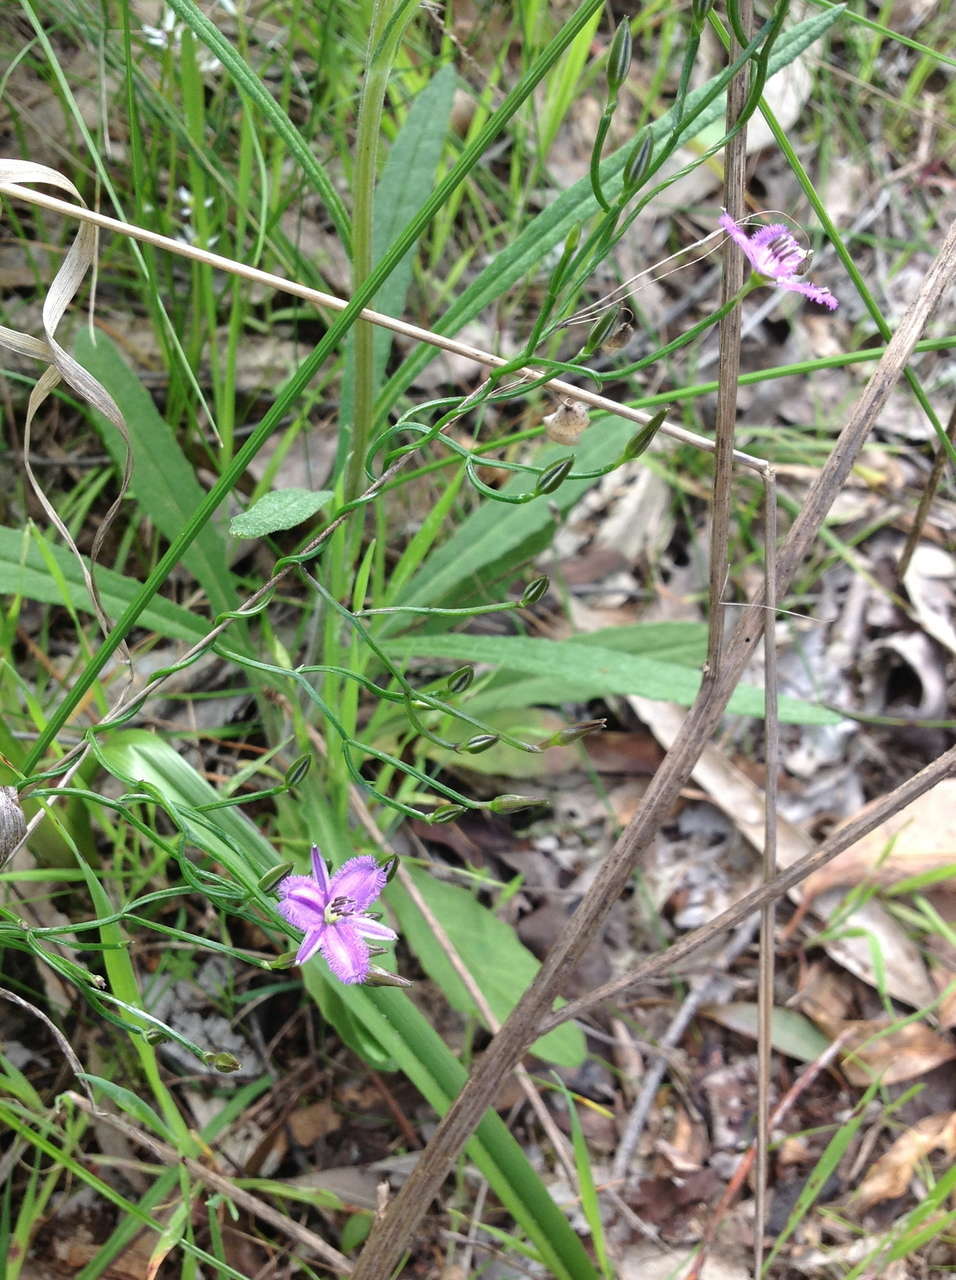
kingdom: Plantae
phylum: Tracheophyta
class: Liliopsida
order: Asparagales
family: Asparagaceae
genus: Thysanotus
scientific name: Thysanotus patersonii
